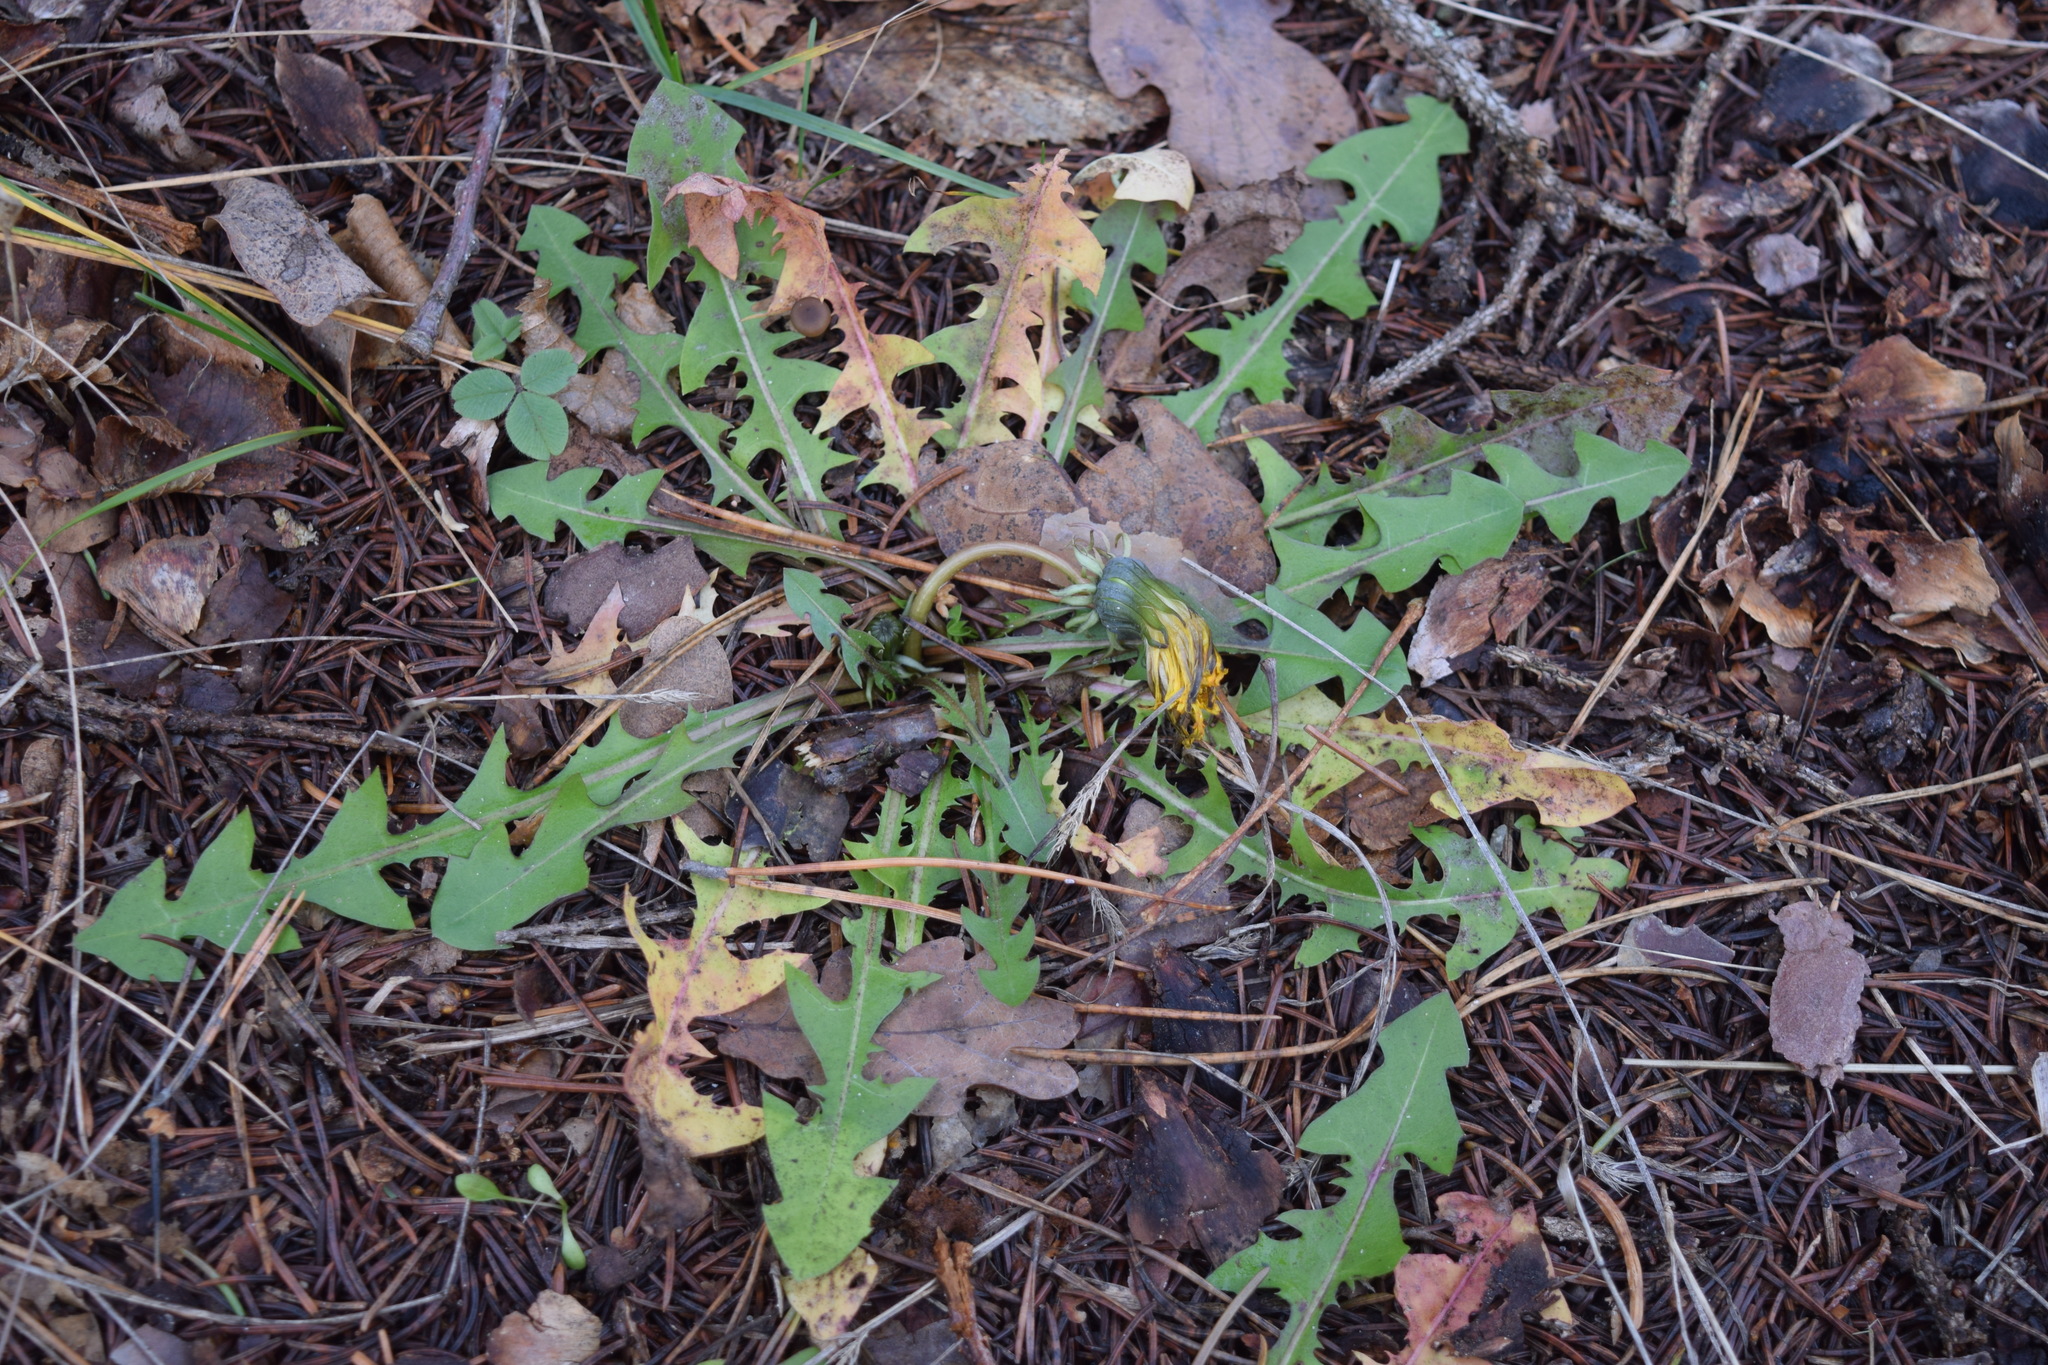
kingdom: Plantae
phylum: Tracheophyta
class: Magnoliopsida
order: Asterales
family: Asteraceae
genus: Taraxacum
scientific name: Taraxacum officinale
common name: Common dandelion
